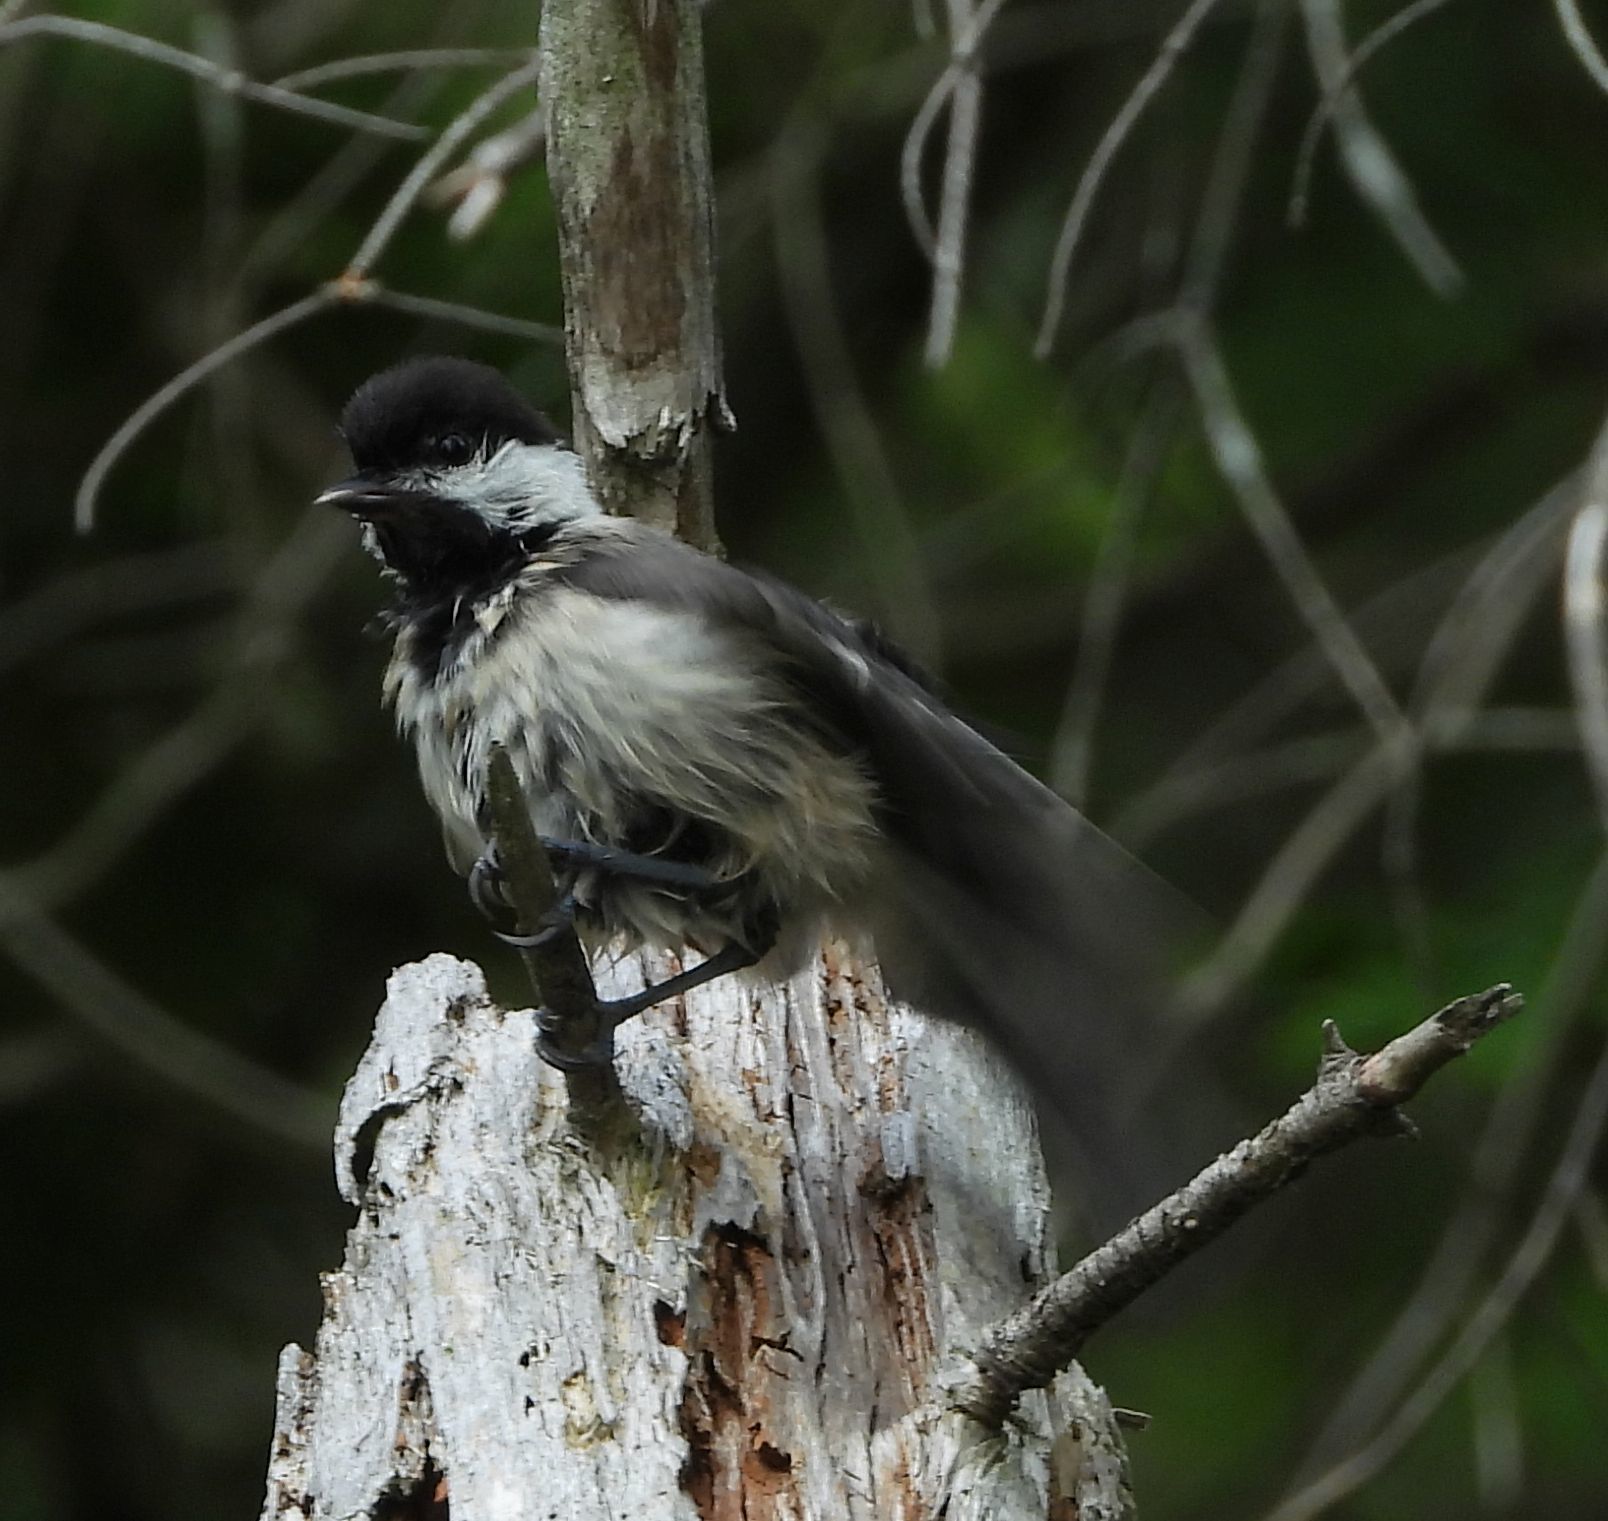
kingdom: Animalia
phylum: Chordata
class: Aves
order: Passeriformes
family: Paridae
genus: Poecile
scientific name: Poecile atricapillus
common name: Black-capped chickadee
